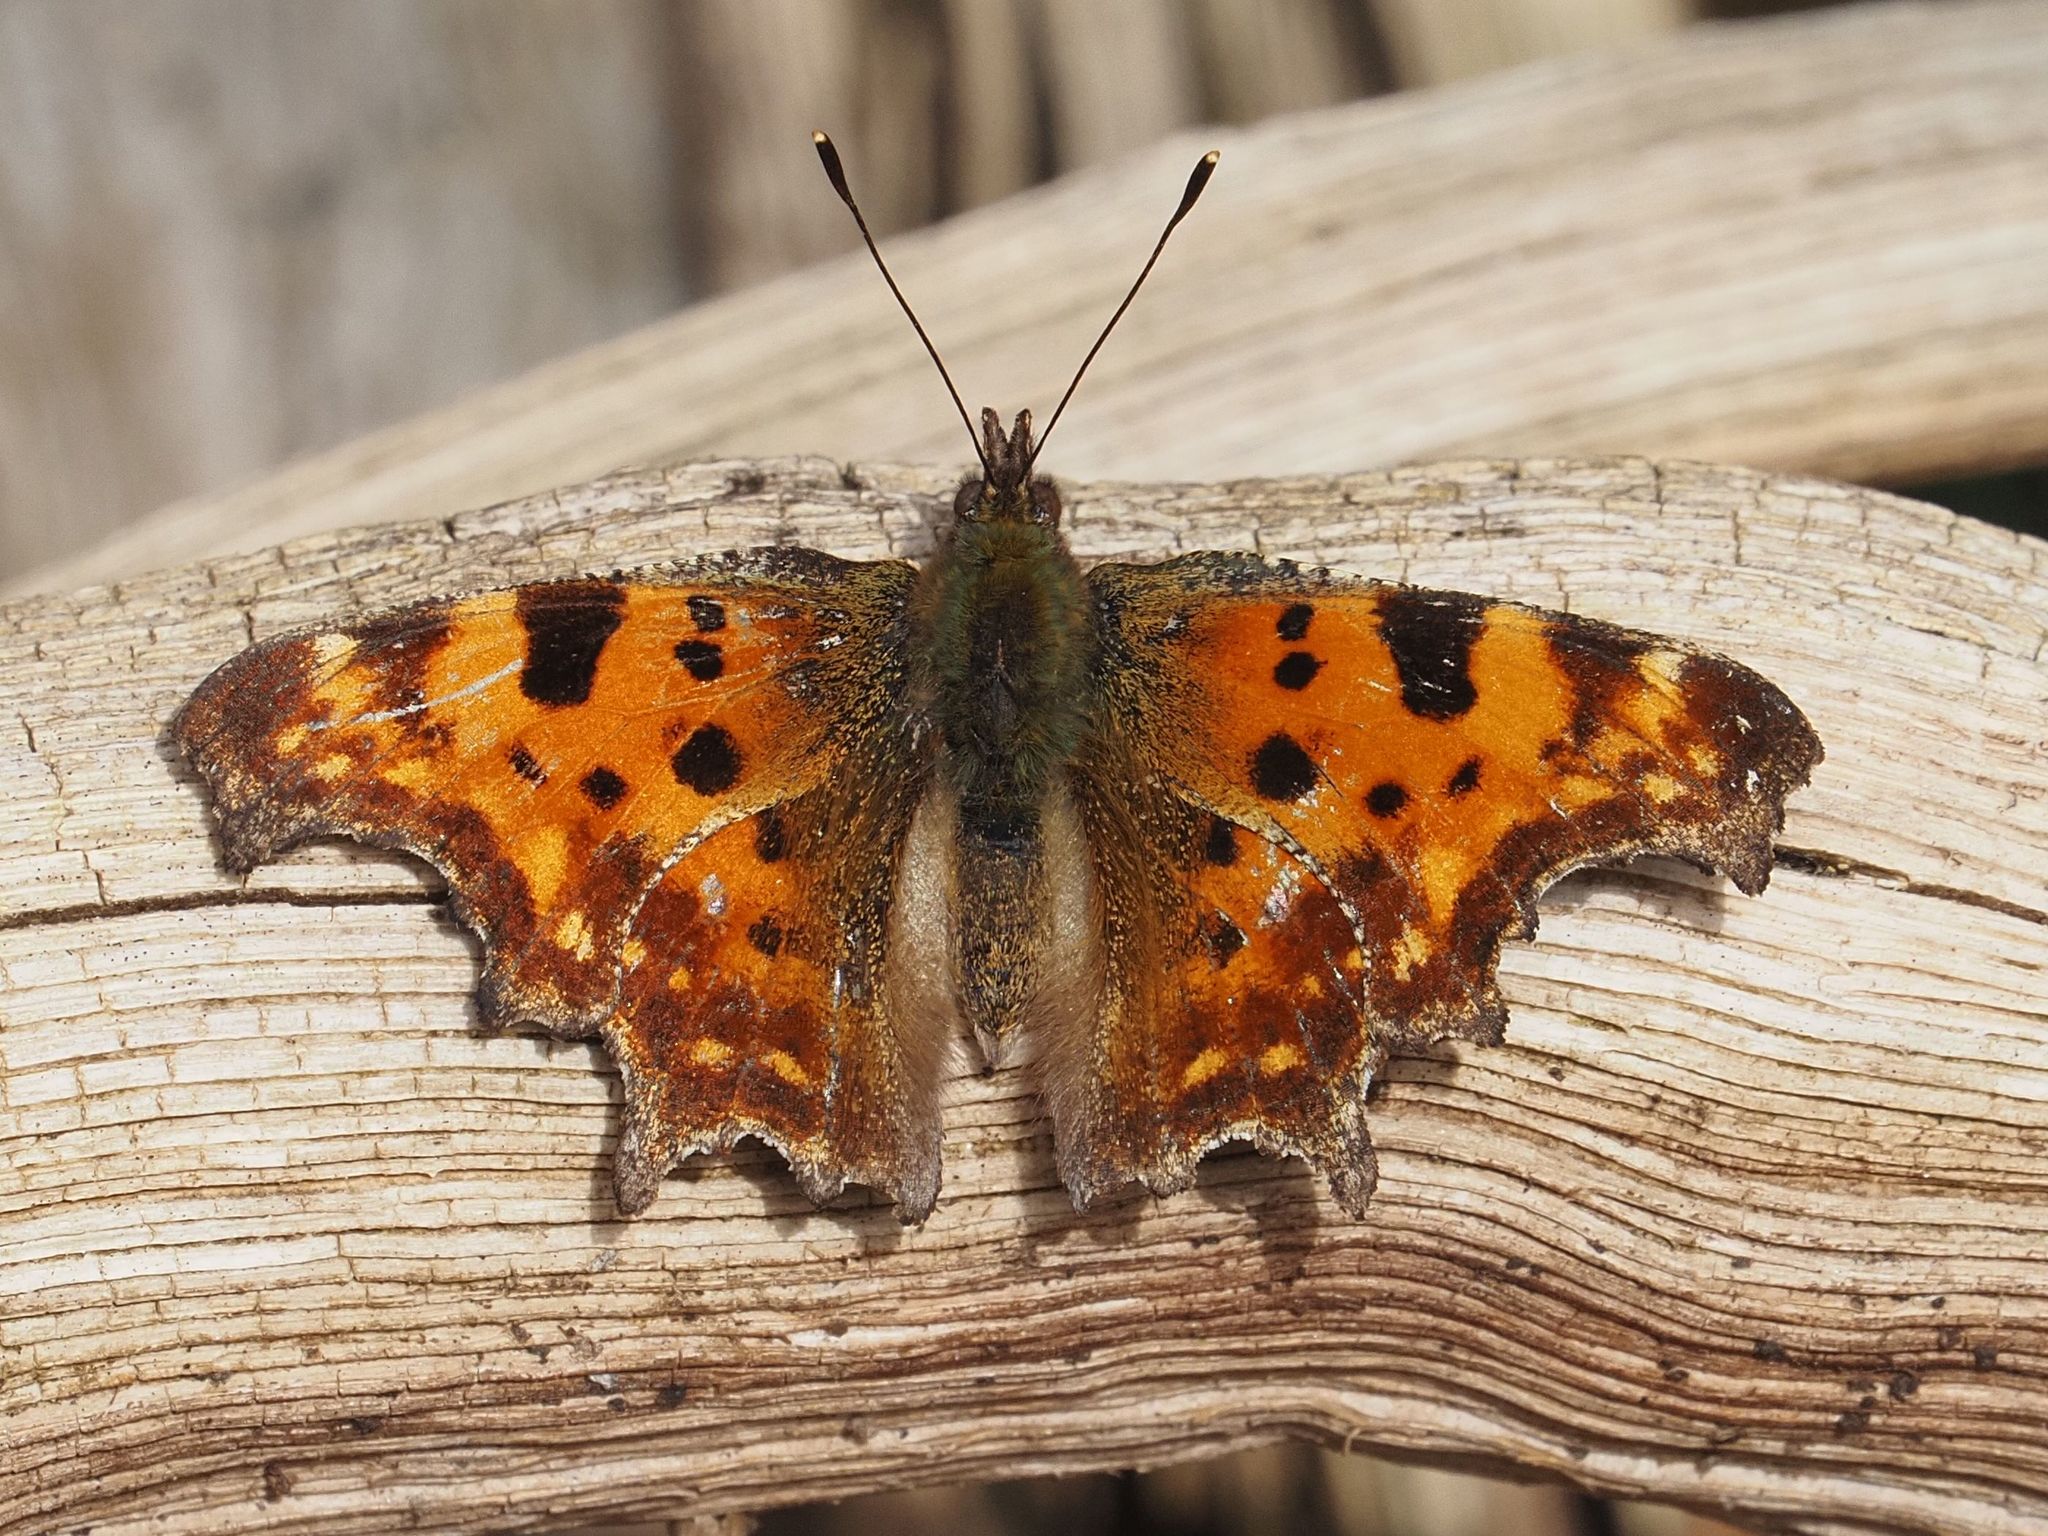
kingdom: Animalia
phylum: Arthropoda
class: Insecta
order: Lepidoptera
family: Nymphalidae
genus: Polygonia
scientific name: Polygonia c-album
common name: Comma
